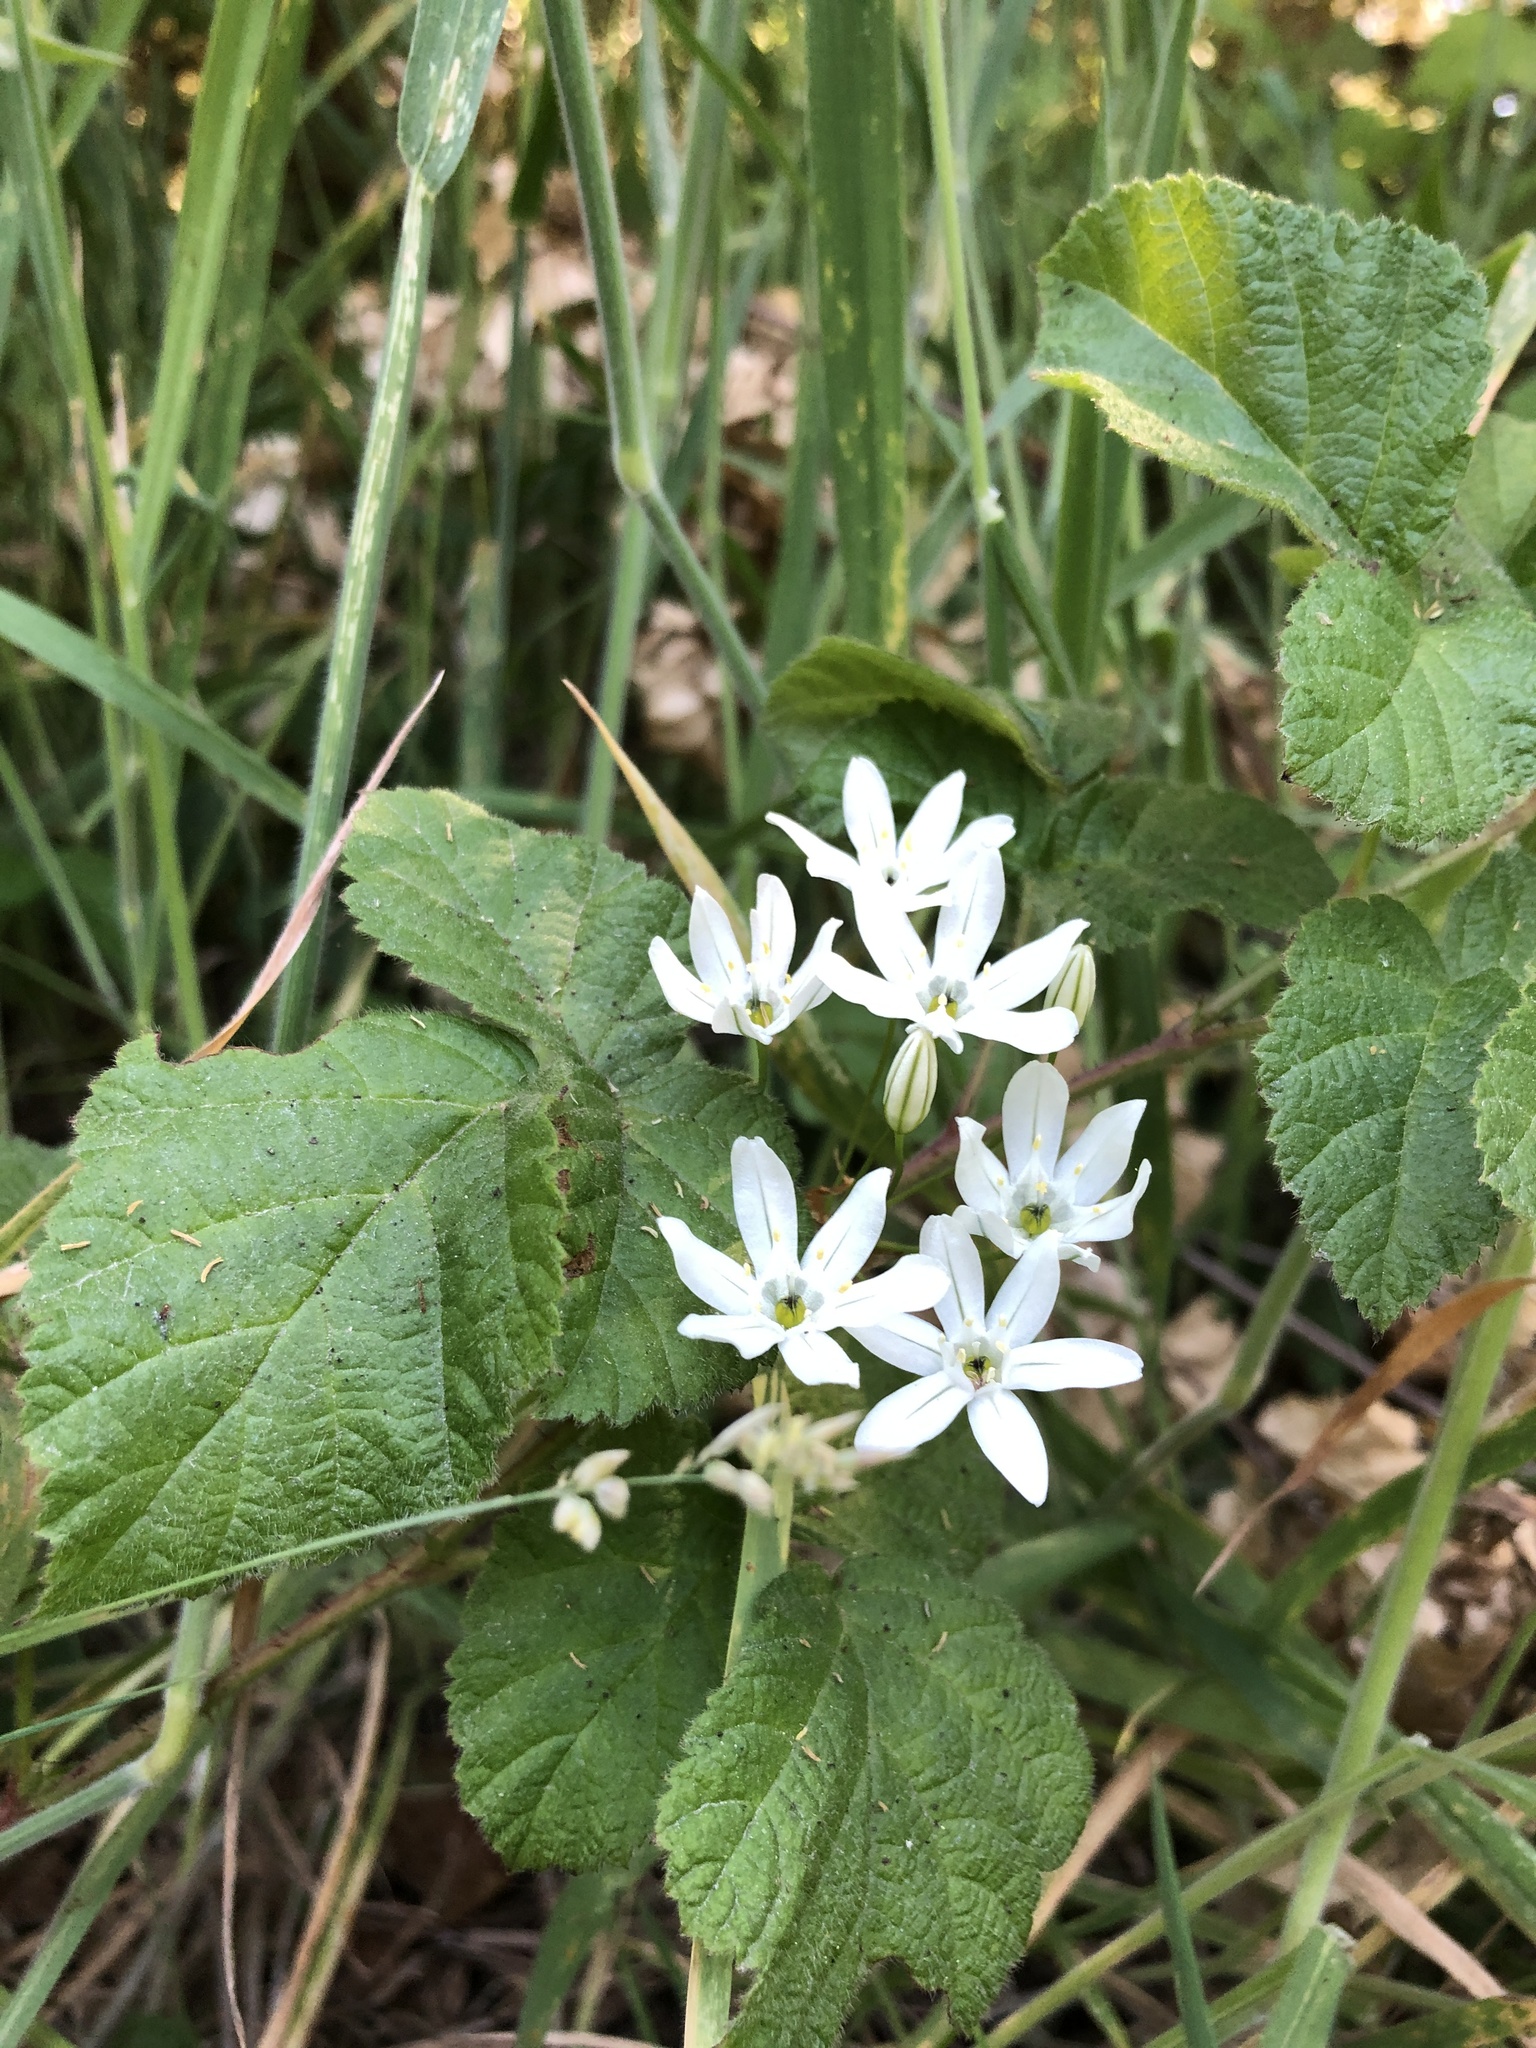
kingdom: Plantae
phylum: Tracheophyta
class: Liliopsida
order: Asparagales
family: Asparagaceae
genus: Triteleia
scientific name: Triteleia hyacinthina
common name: White brodiaea
